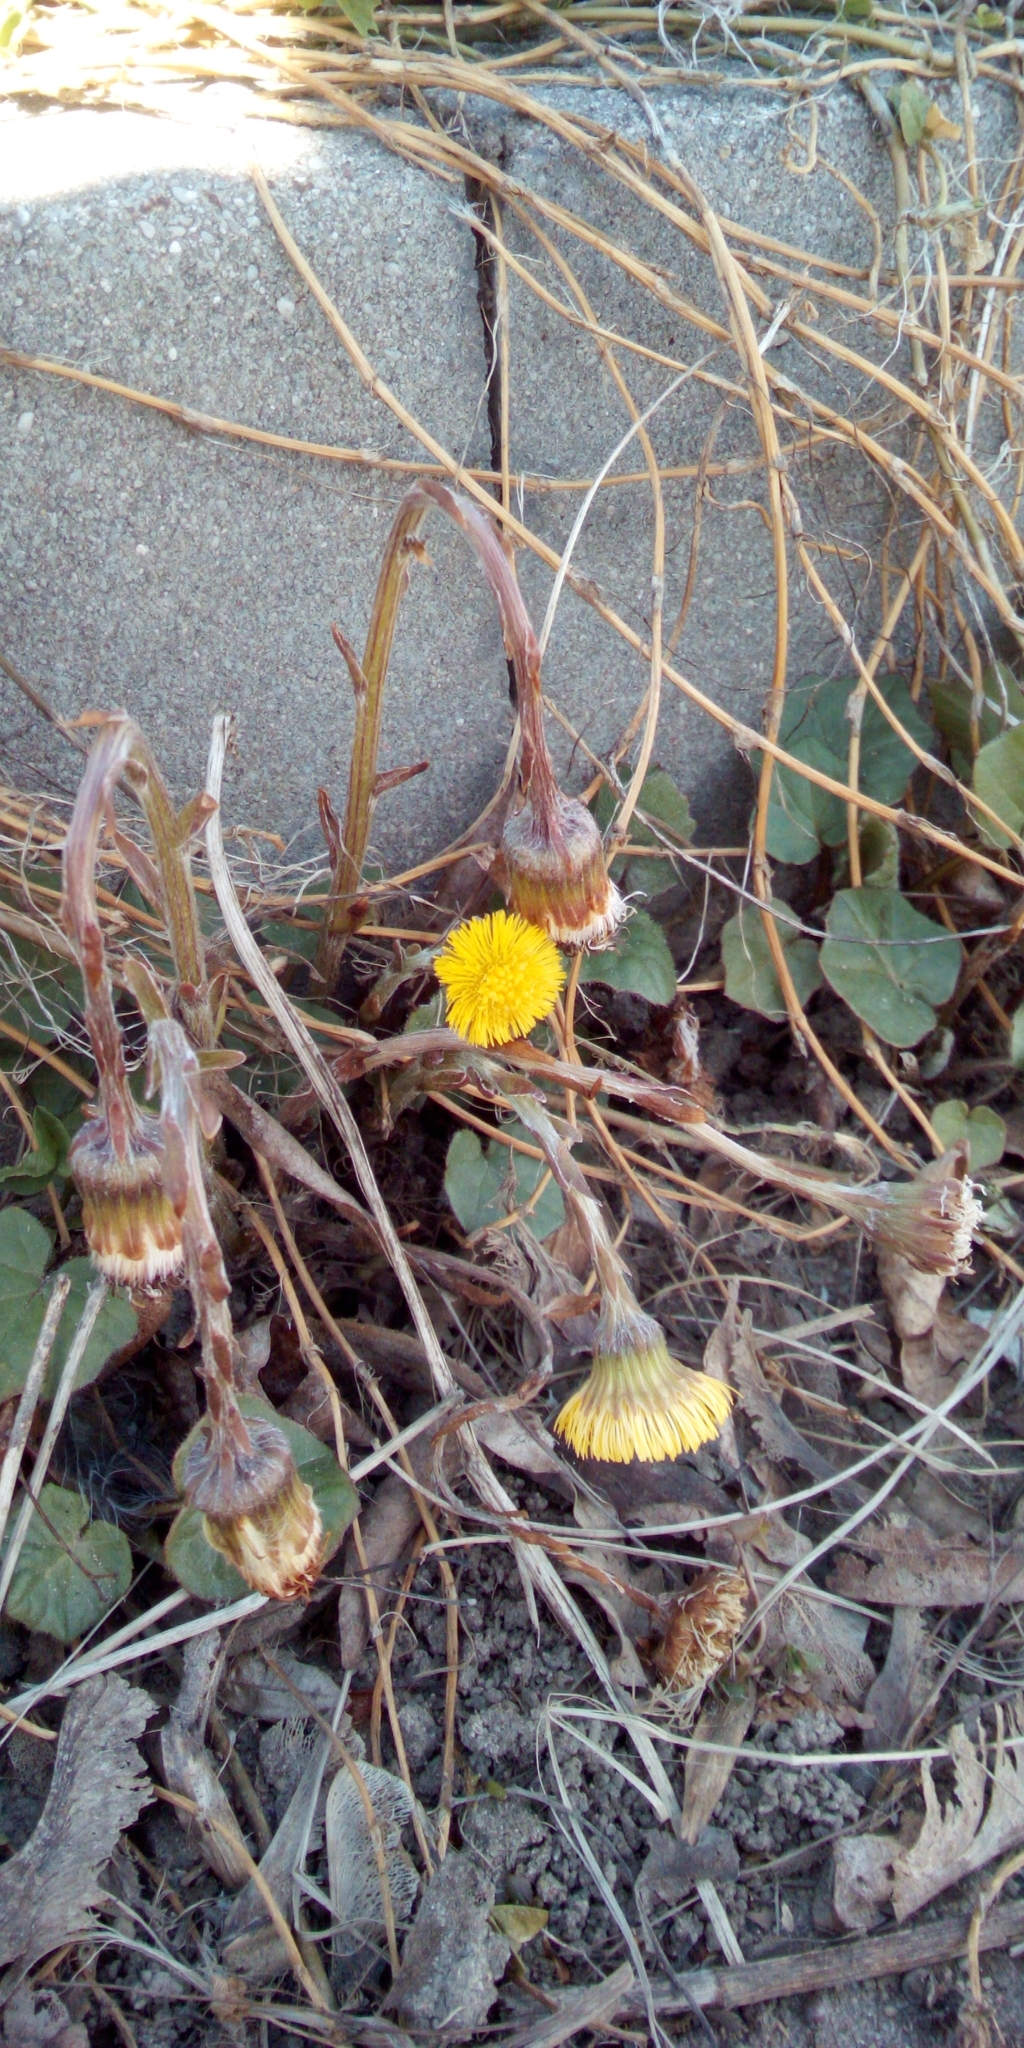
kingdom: Plantae
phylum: Tracheophyta
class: Magnoliopsida
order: Asterales
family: Asteraceae
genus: Tussilago
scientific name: Tussilago farfara
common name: Coltsfoot
